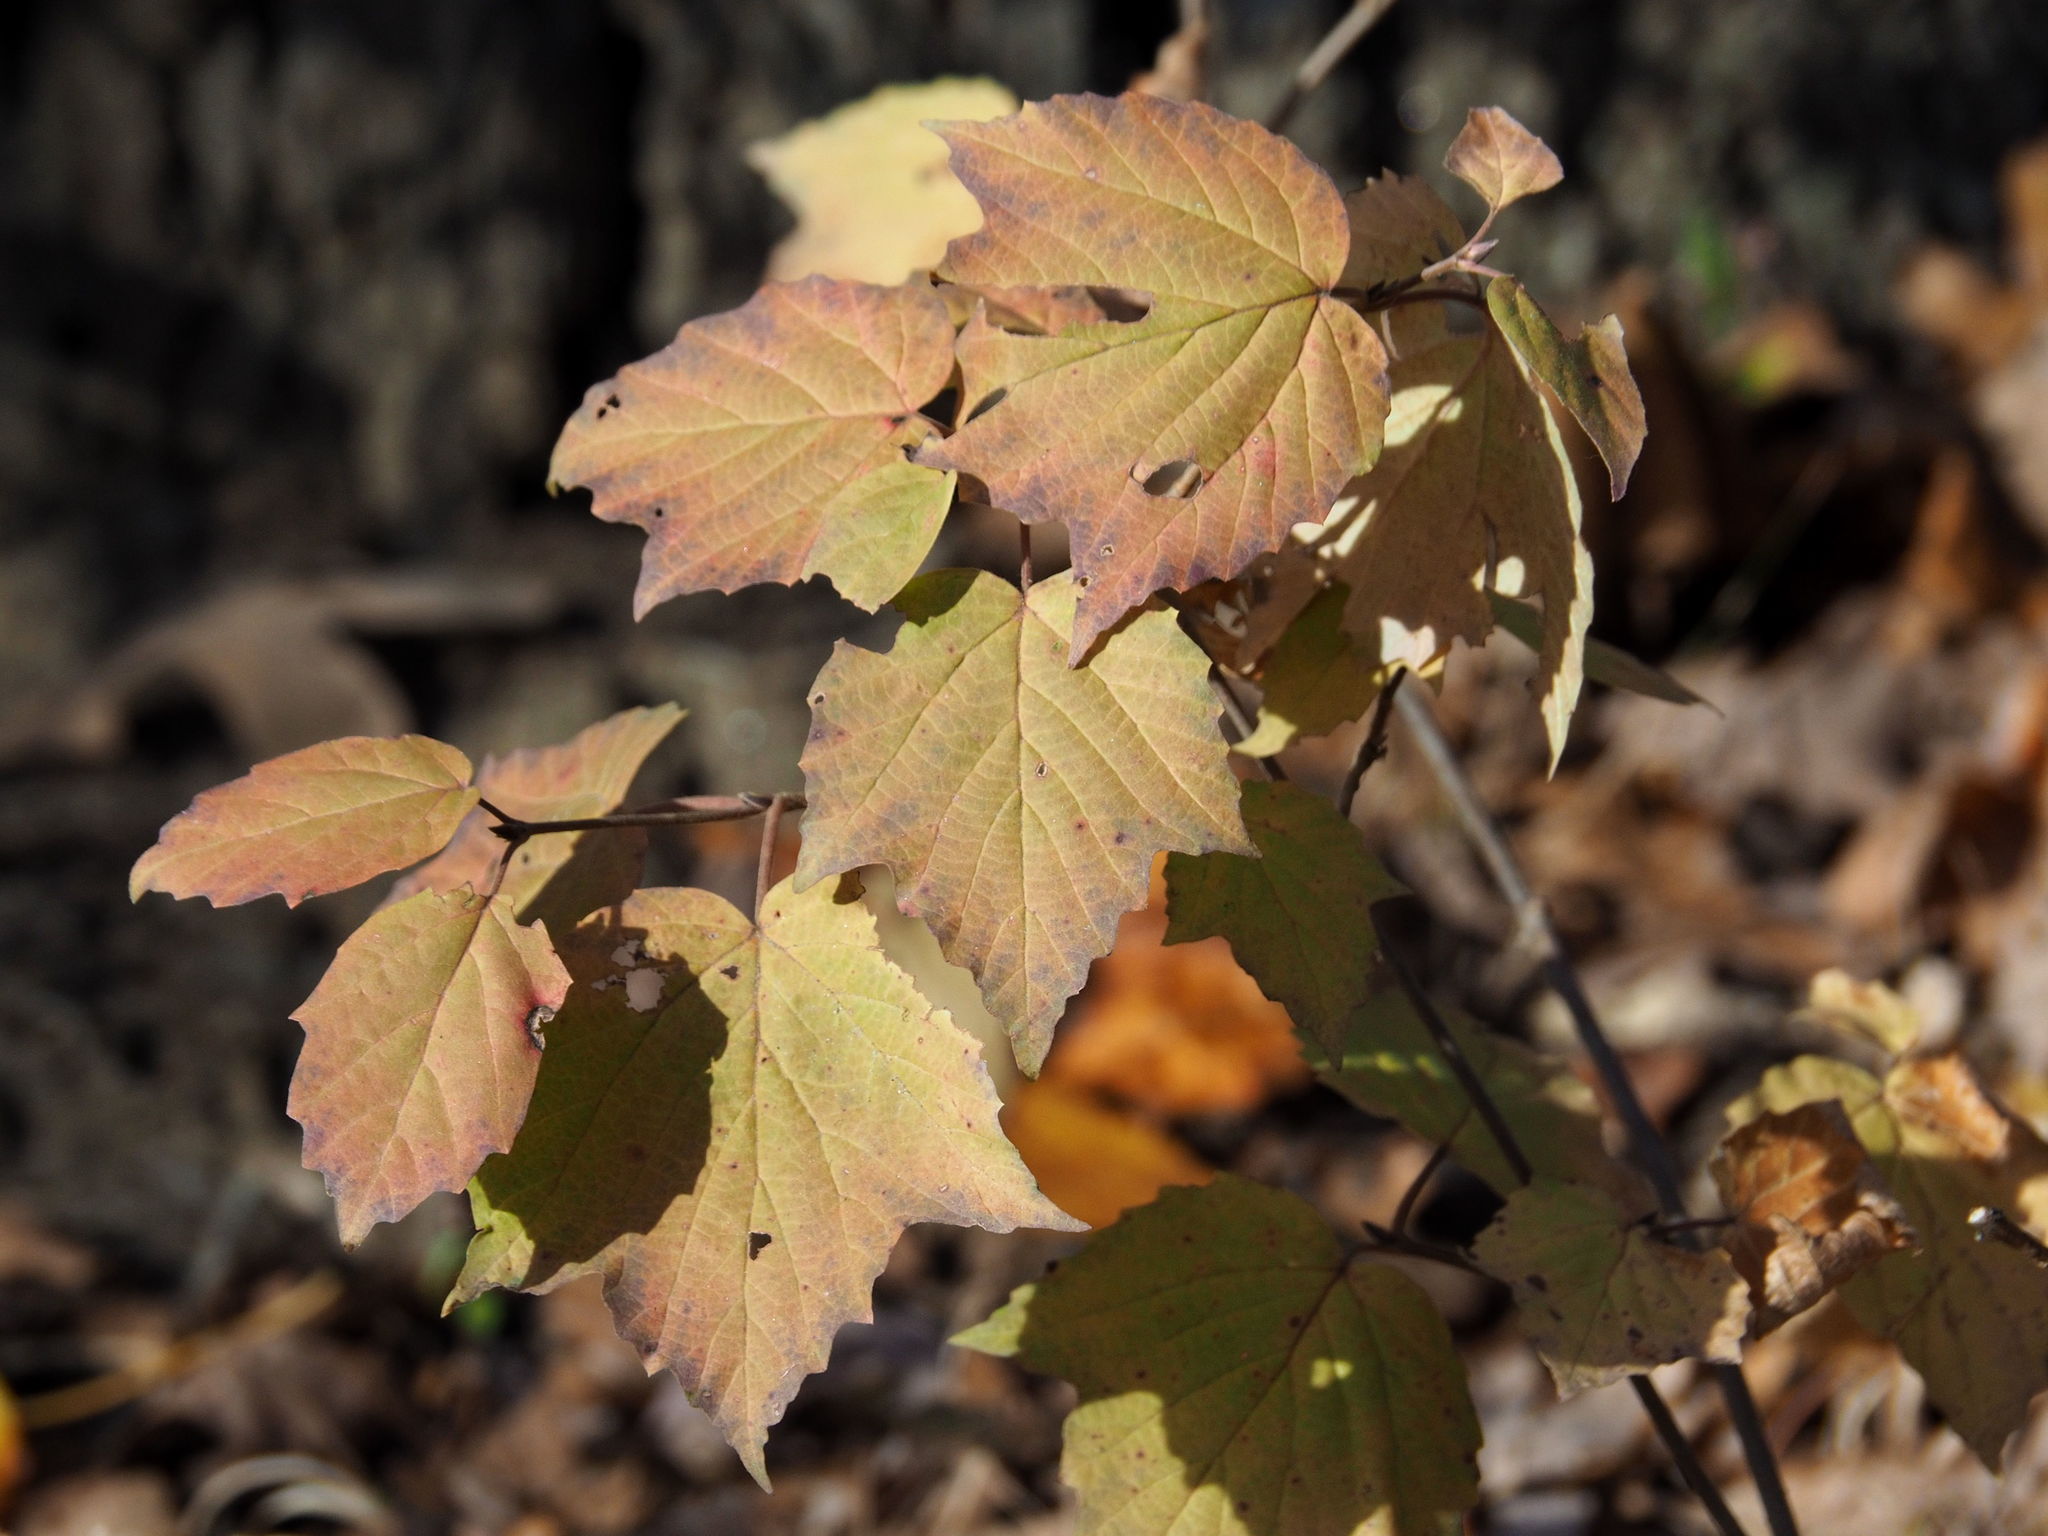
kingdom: Plantae
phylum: Tracheophyta
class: Magnoliopsida
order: Dipsacales
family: Viburnaceae
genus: Viburnum
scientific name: Viburnum acerifolium
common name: Dockmackie
